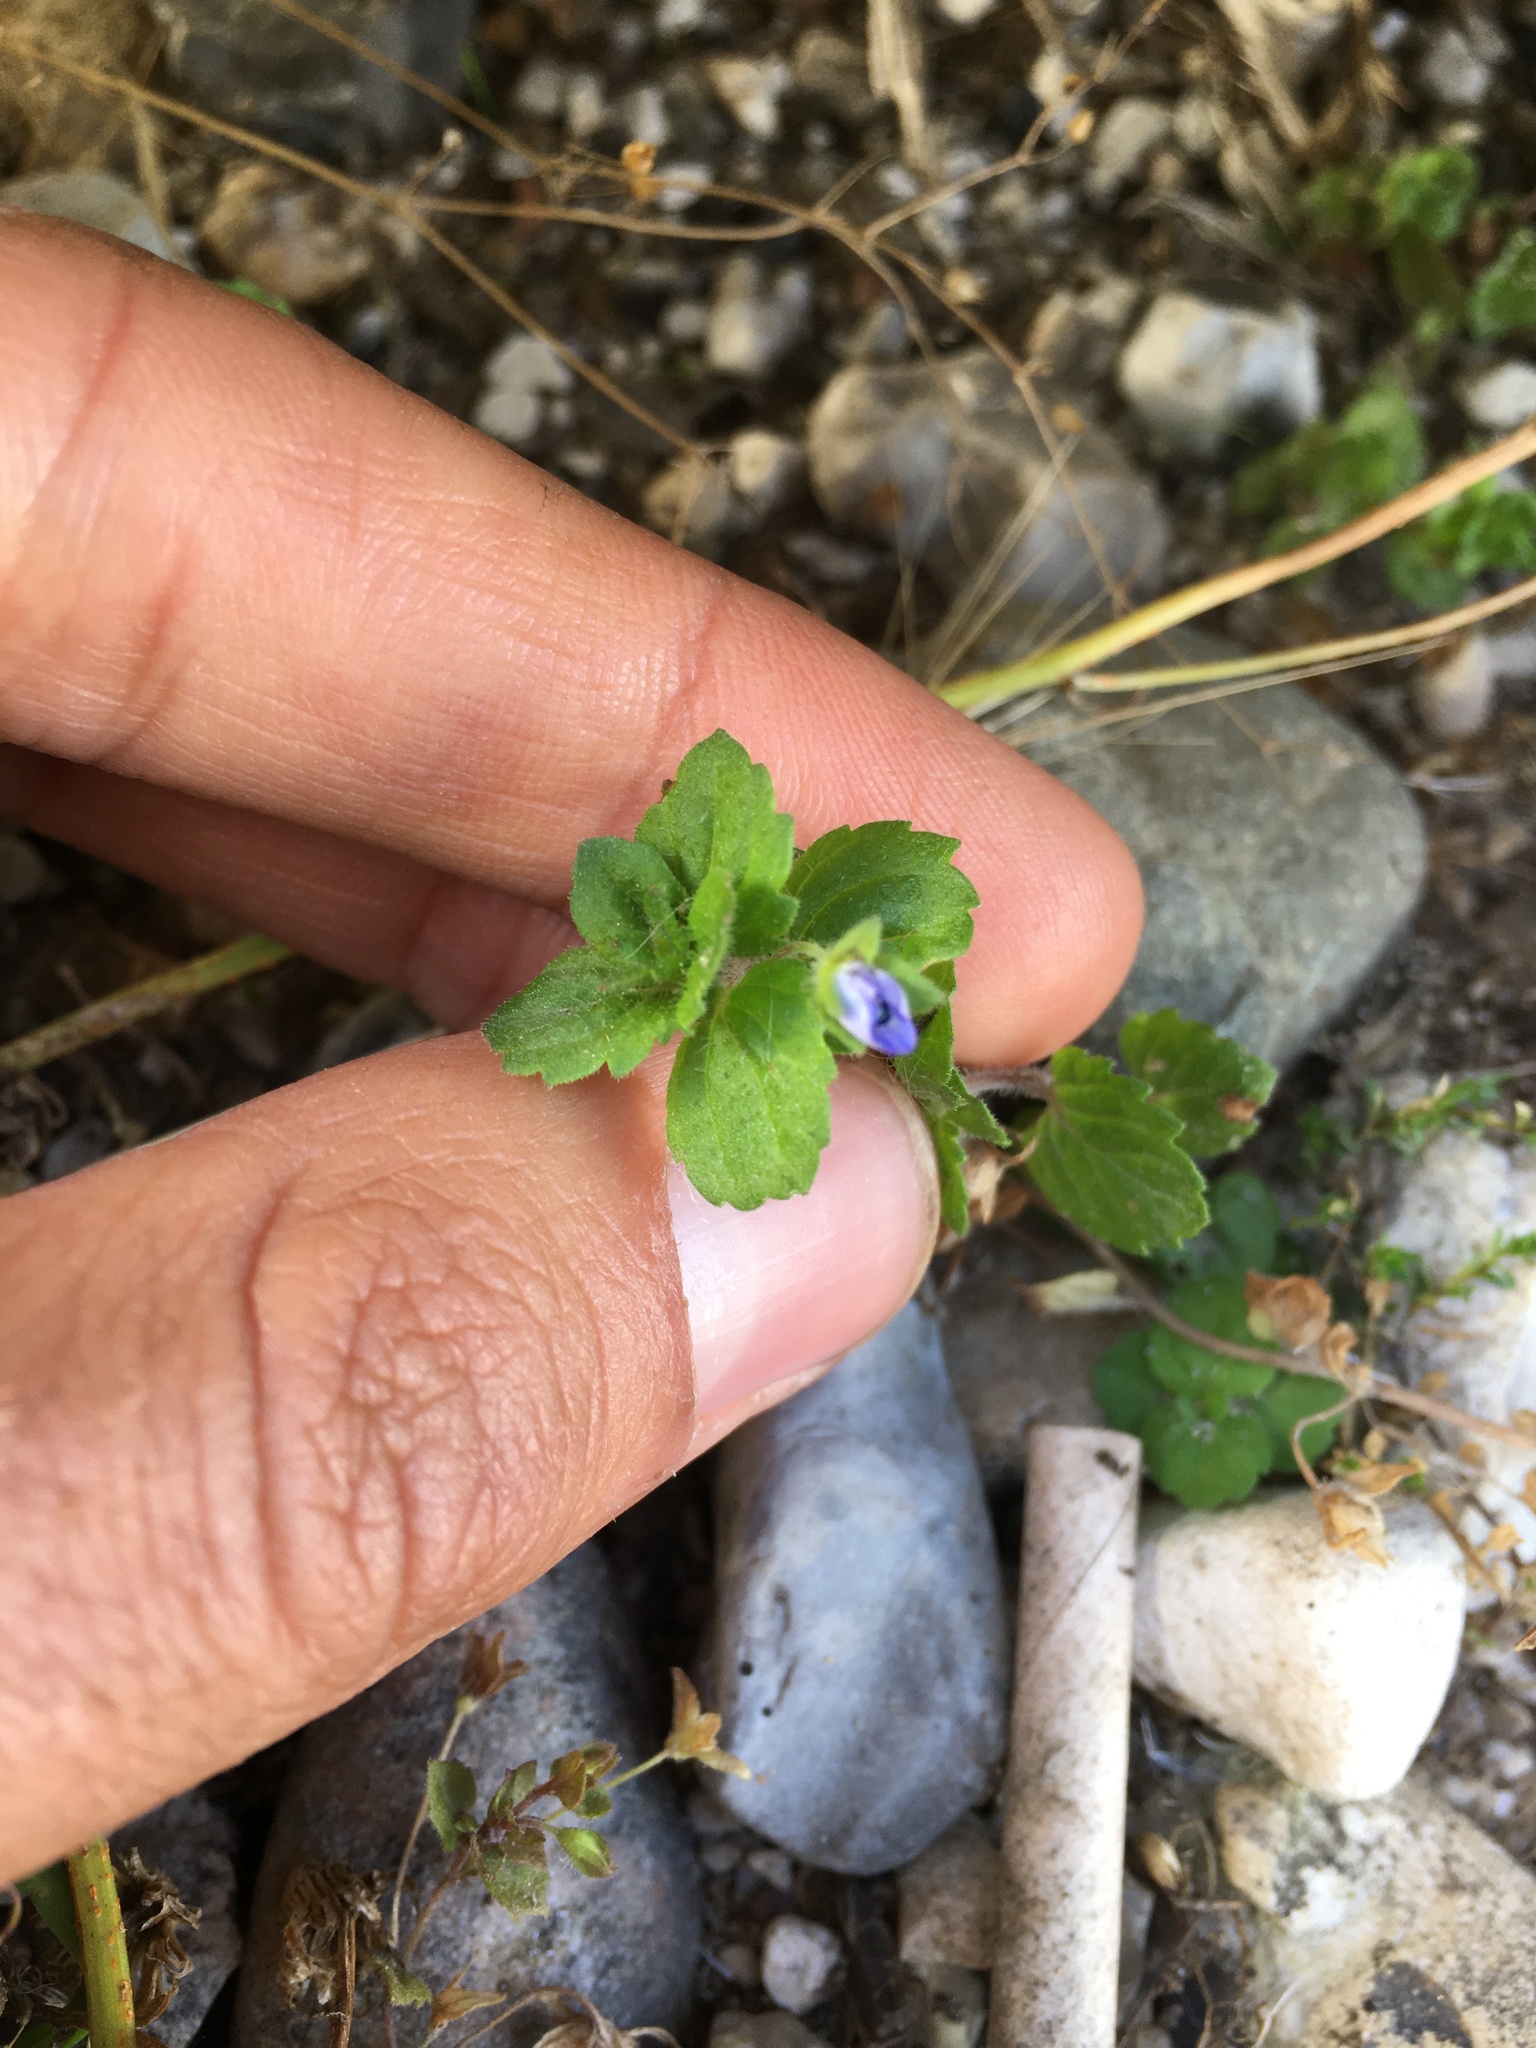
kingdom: Plantae
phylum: Tracheophyta
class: Magnoliopsida
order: Lamiales
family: Plantaginaceae
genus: Veronica
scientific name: Veronica persica
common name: Common field-speedwell
